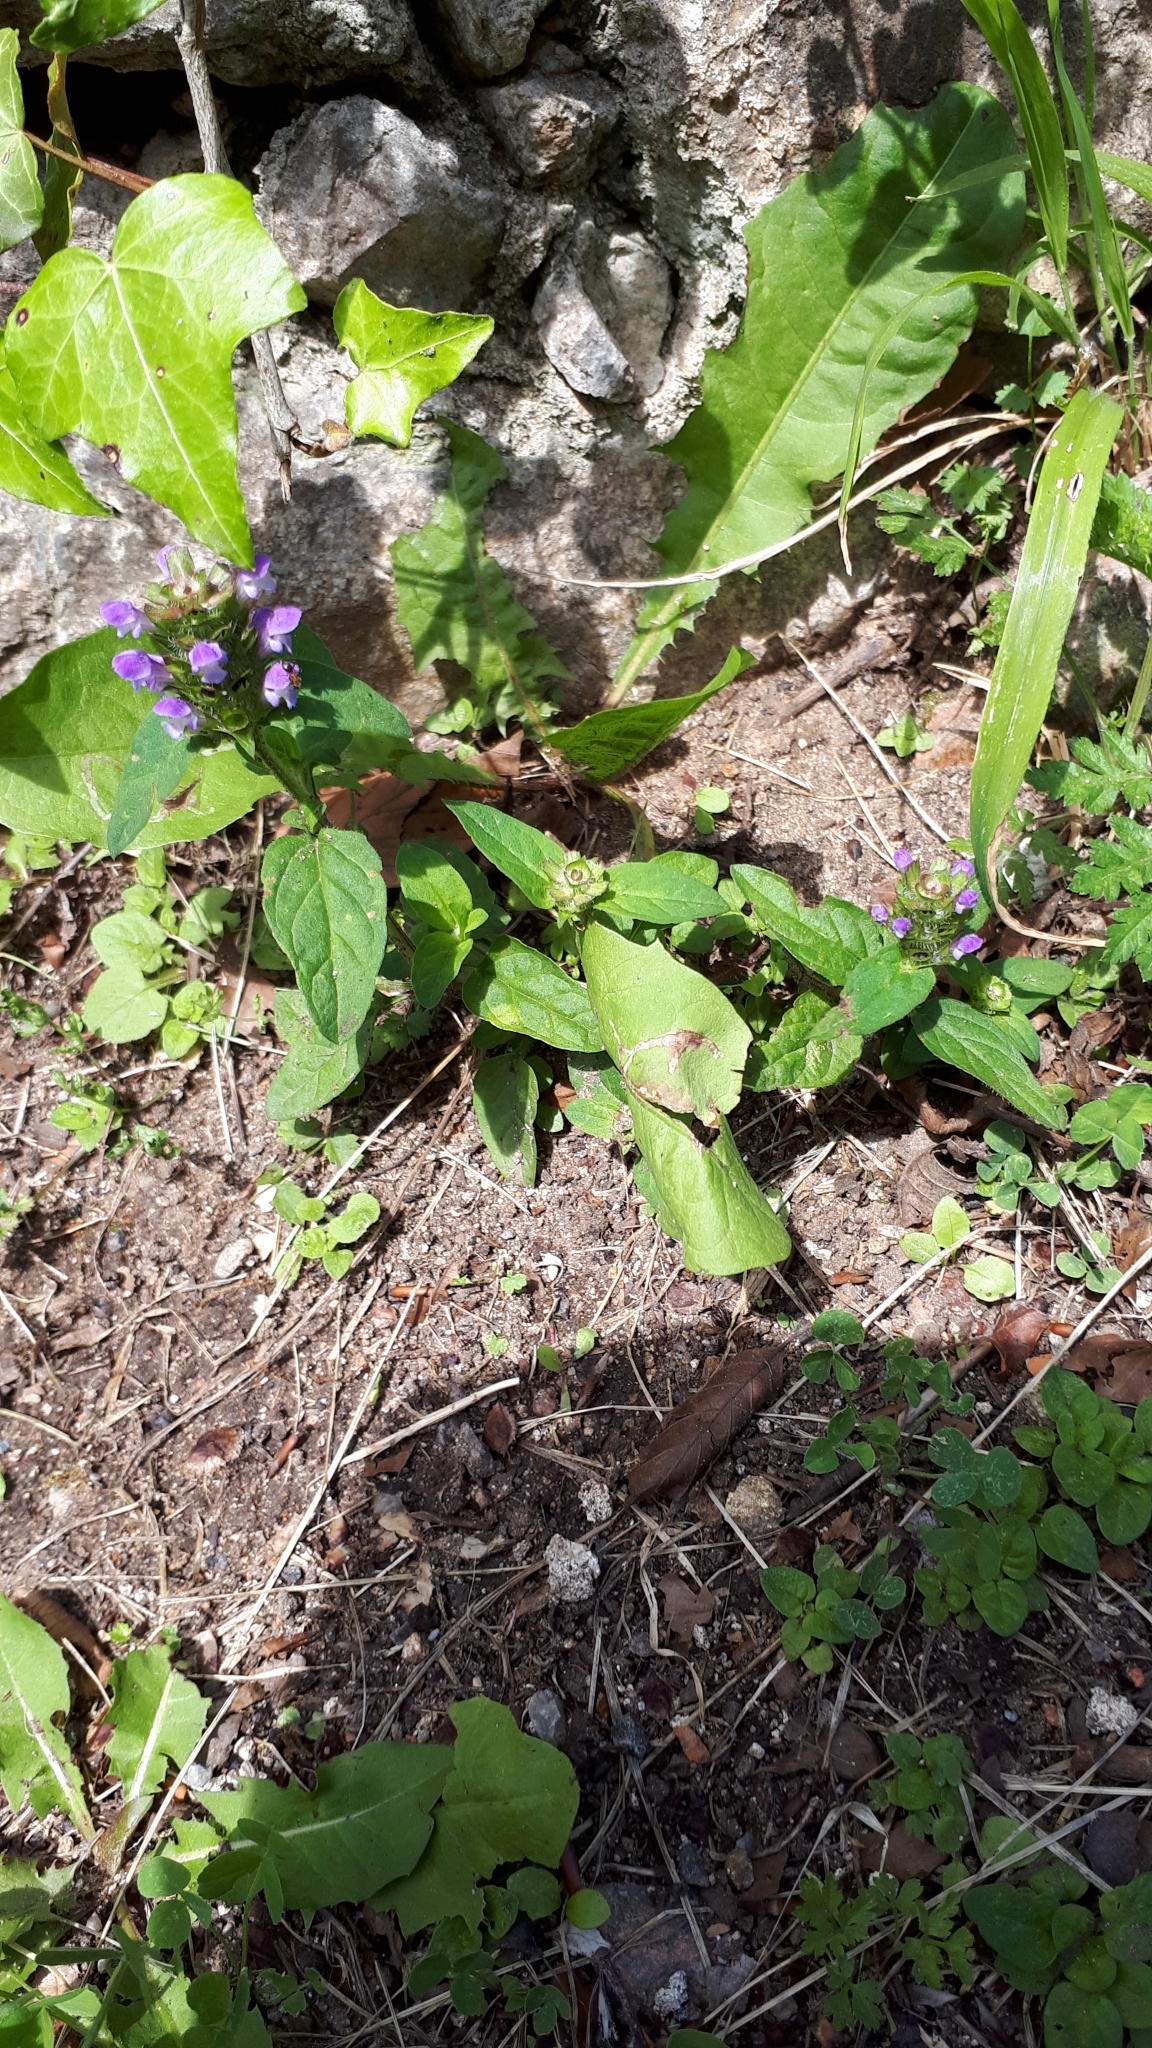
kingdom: Plantae
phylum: Tracheophyta
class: Magnoliopsida
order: Lamiales
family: Lamiaceae
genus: Prunella
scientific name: Prunella vulgaris
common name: Heal-all
